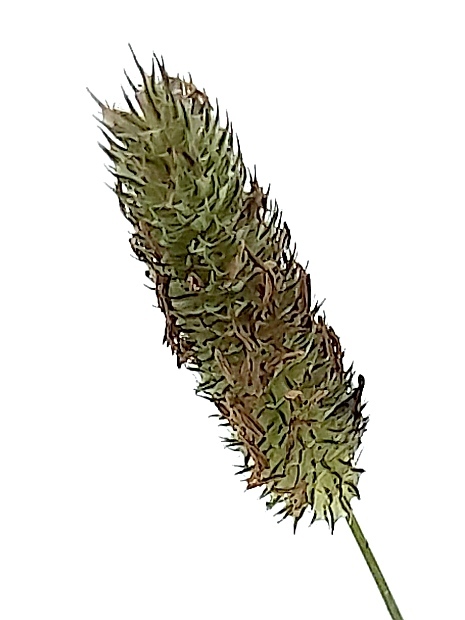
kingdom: Plantae
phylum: Tracheophyta
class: Liliopsida
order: Poales
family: Poaceae
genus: Phleum
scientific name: Phleum pratense
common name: Timothy grass
